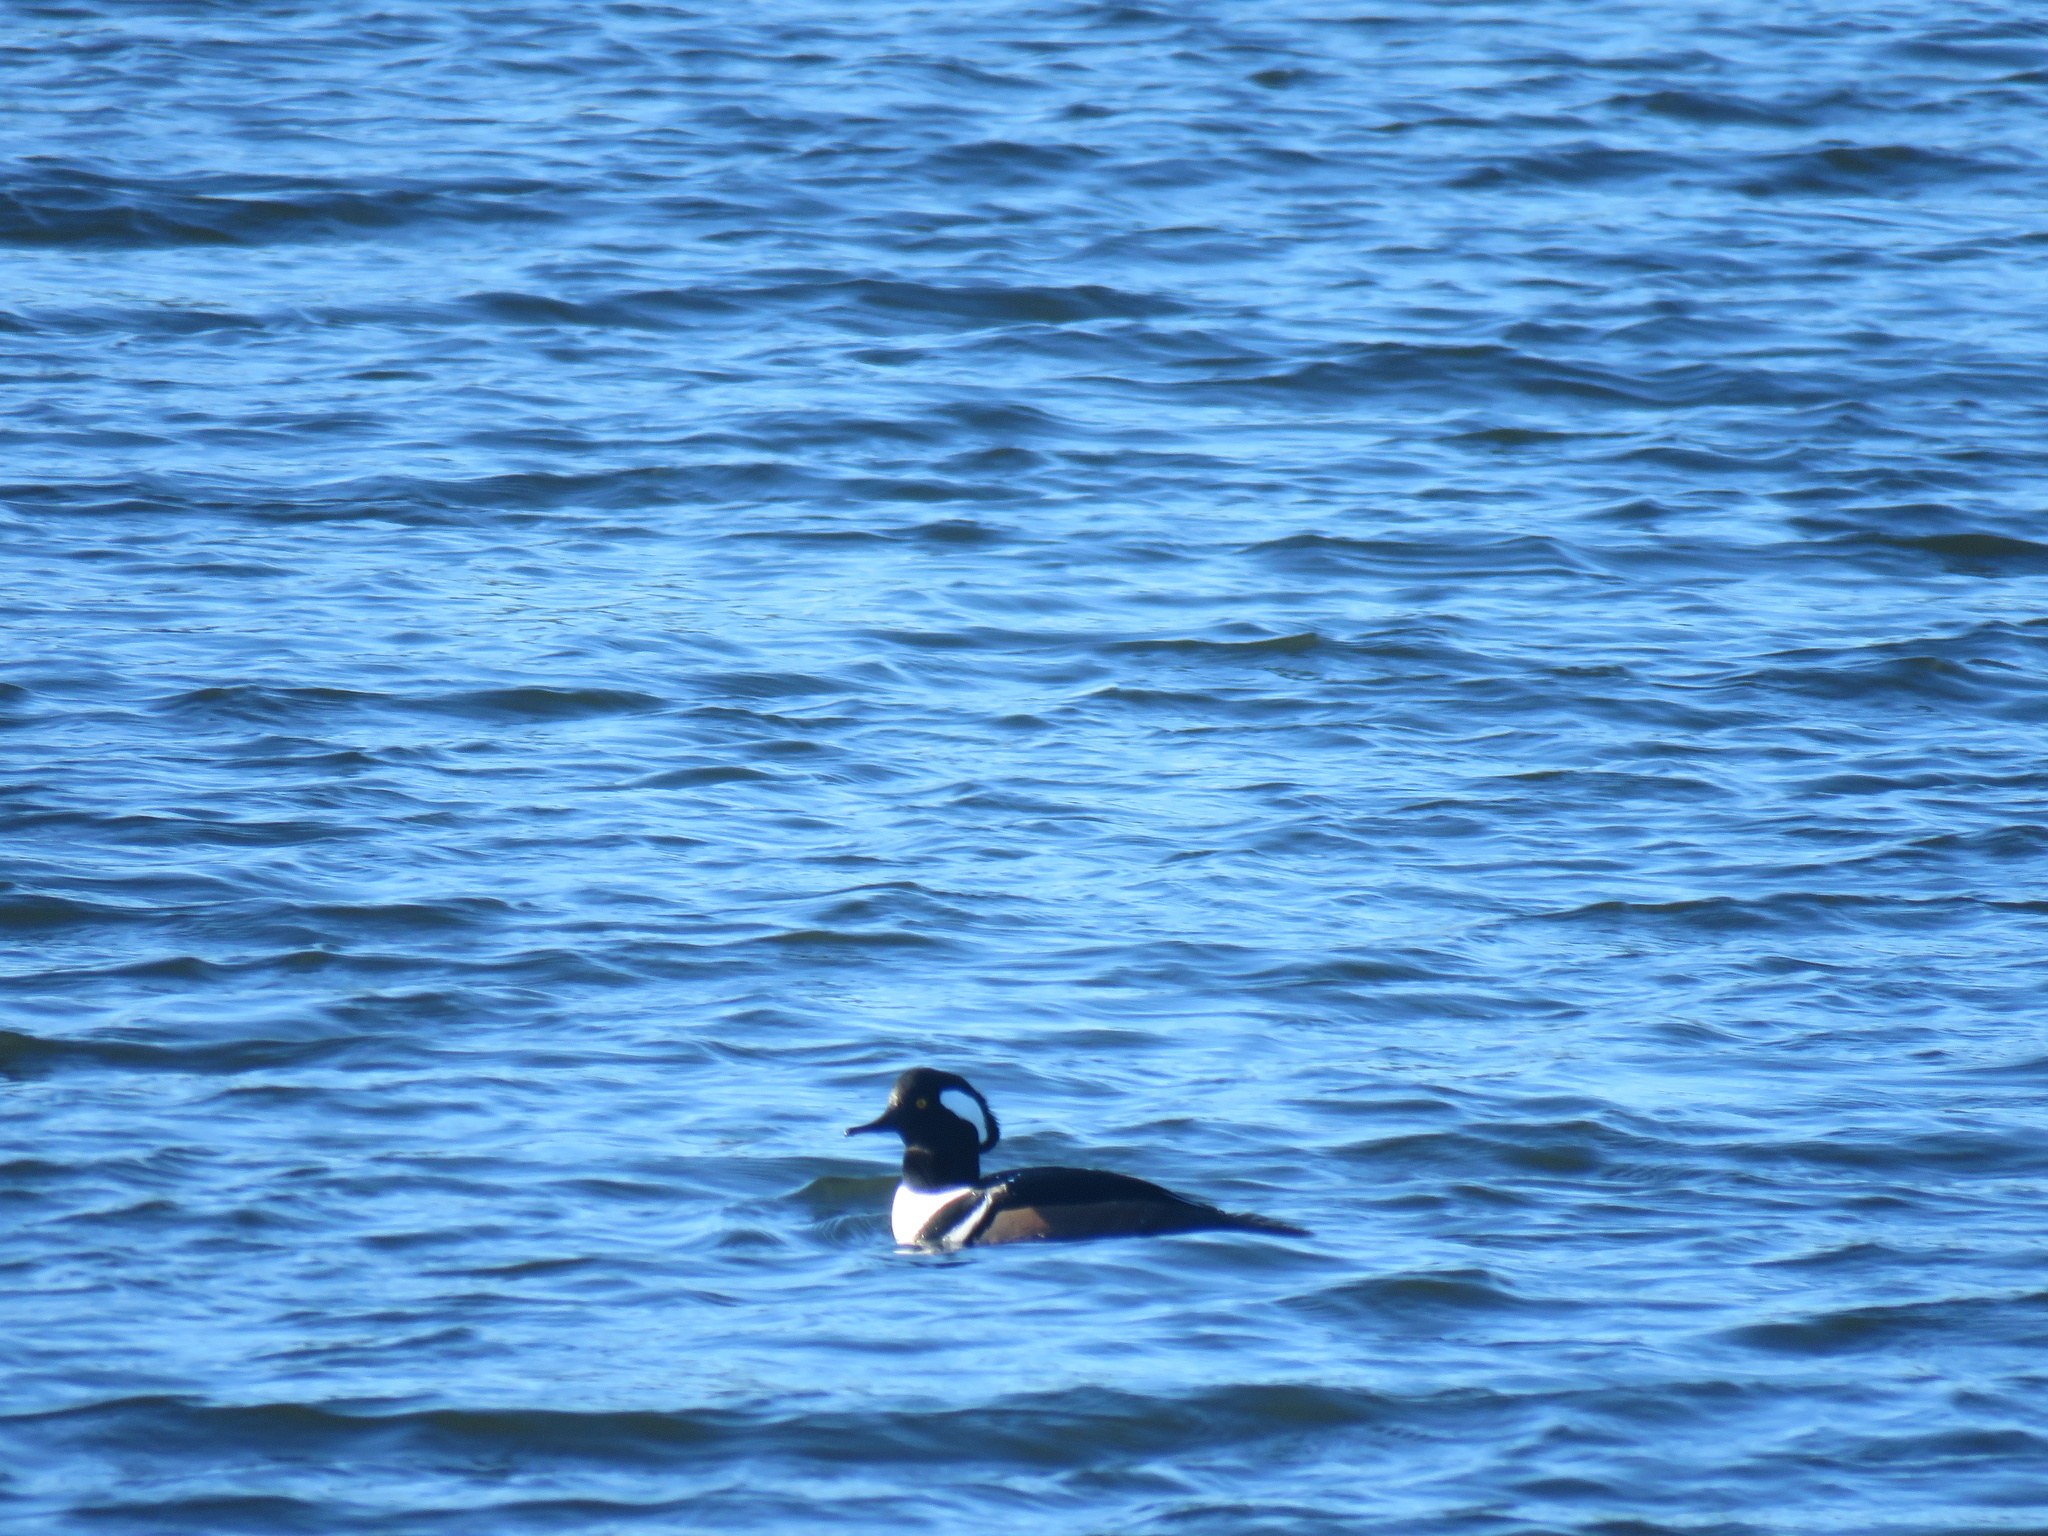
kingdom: Animalia
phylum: Chordata
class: Aves
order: Anseriformes
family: Anatidae
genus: Lophodytes
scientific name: Lophodytes cucullatus
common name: Hooded merganser
